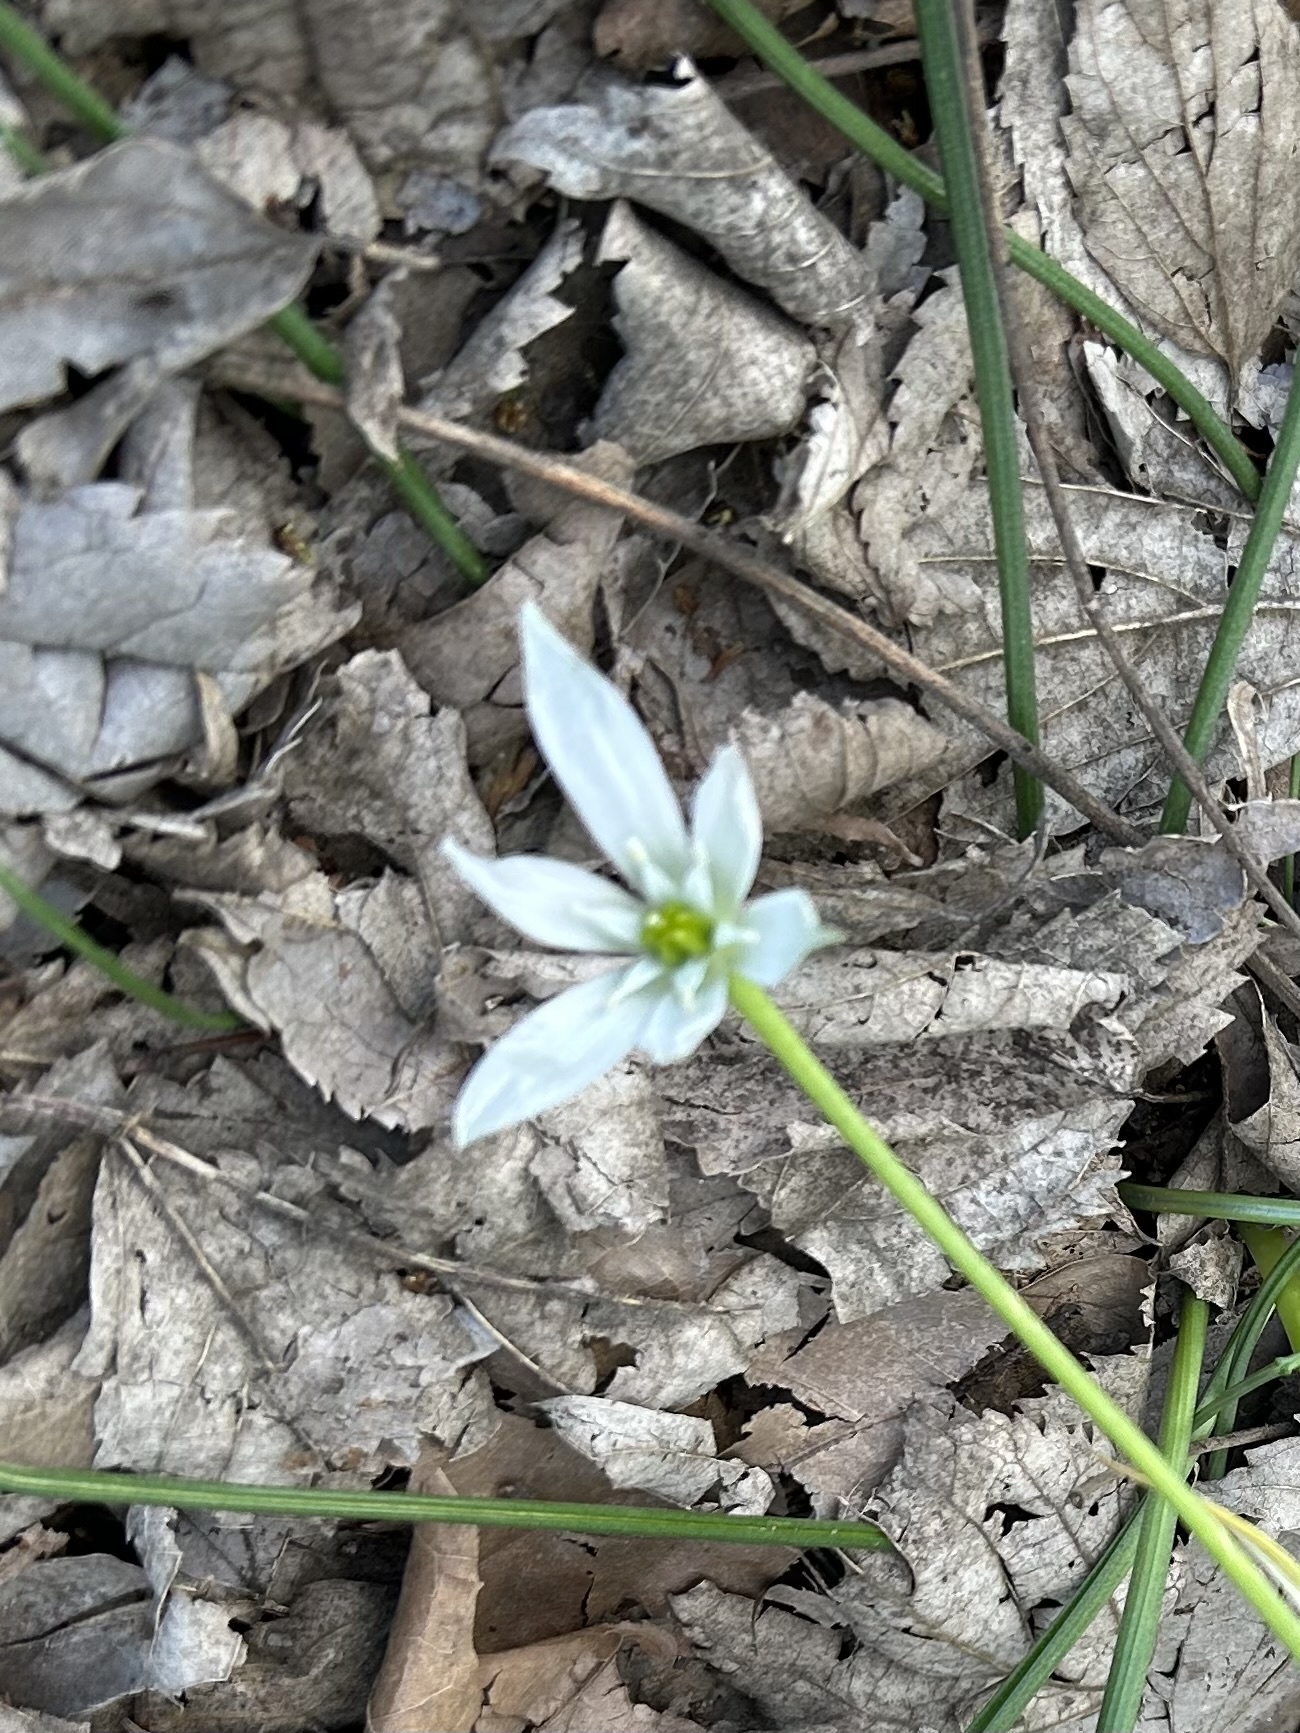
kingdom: Plantae
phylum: Tracheophyta
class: Liliopsida
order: Asparagales
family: Asparagaceae
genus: Ornithogalum
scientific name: Ornithogalum divergens
